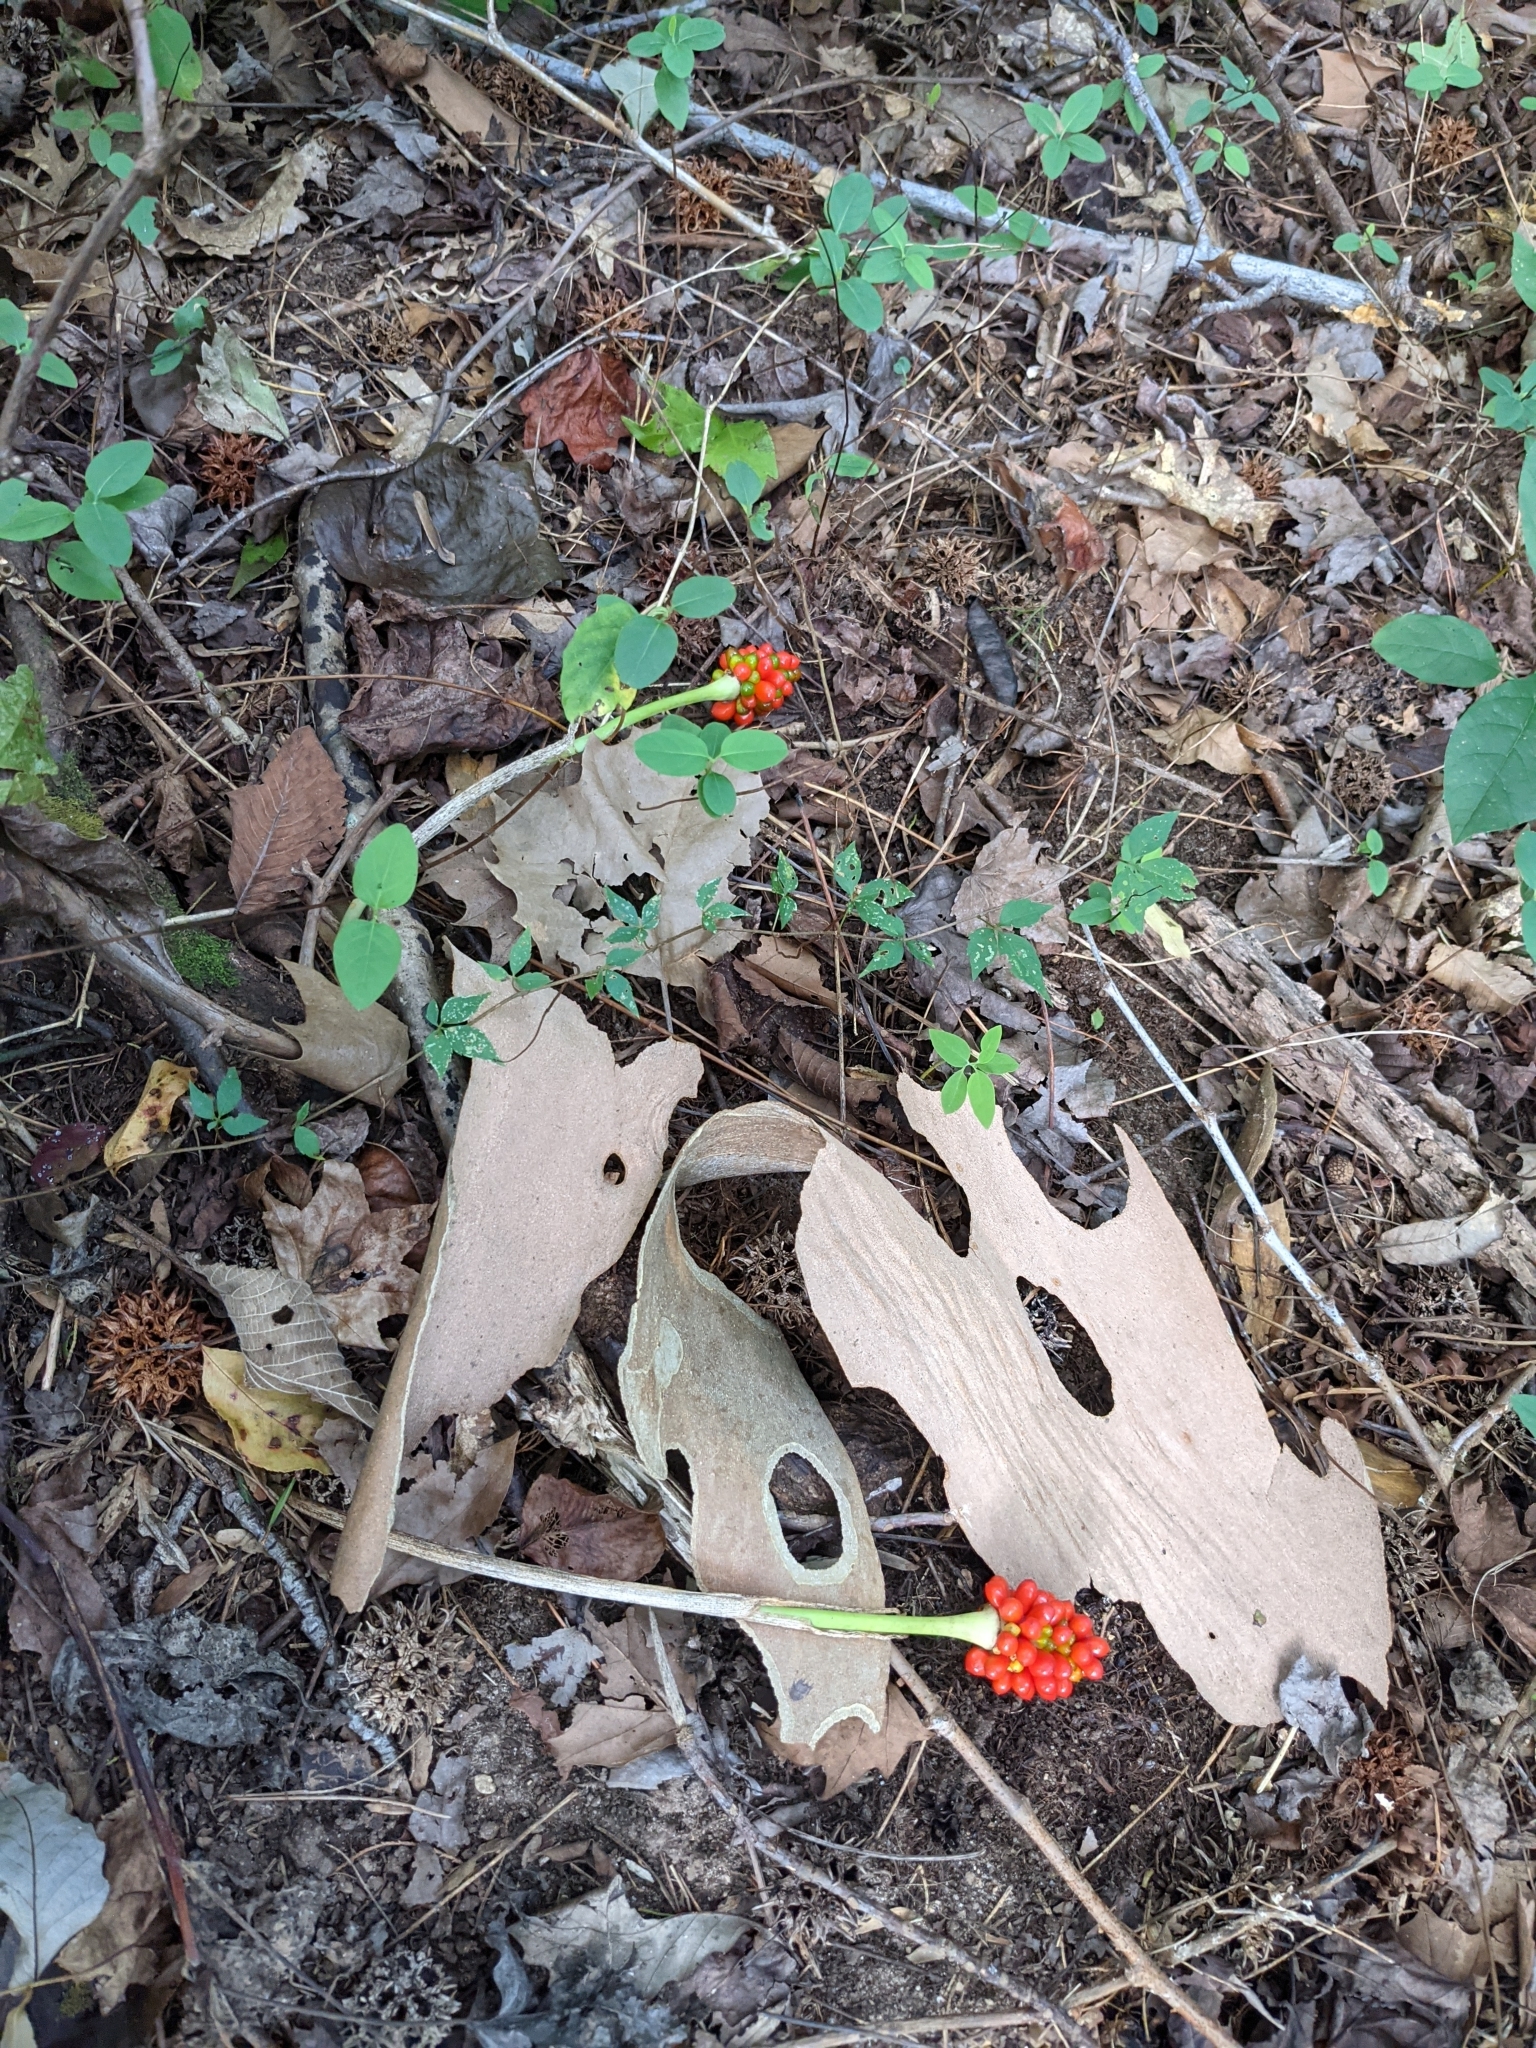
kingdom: Plantae
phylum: Tracheophyta
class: Liliopsida
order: Alismatales
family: Araceae
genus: Arisaema
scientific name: Arisaema triphyllum
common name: Jack-in-the-pulpit
